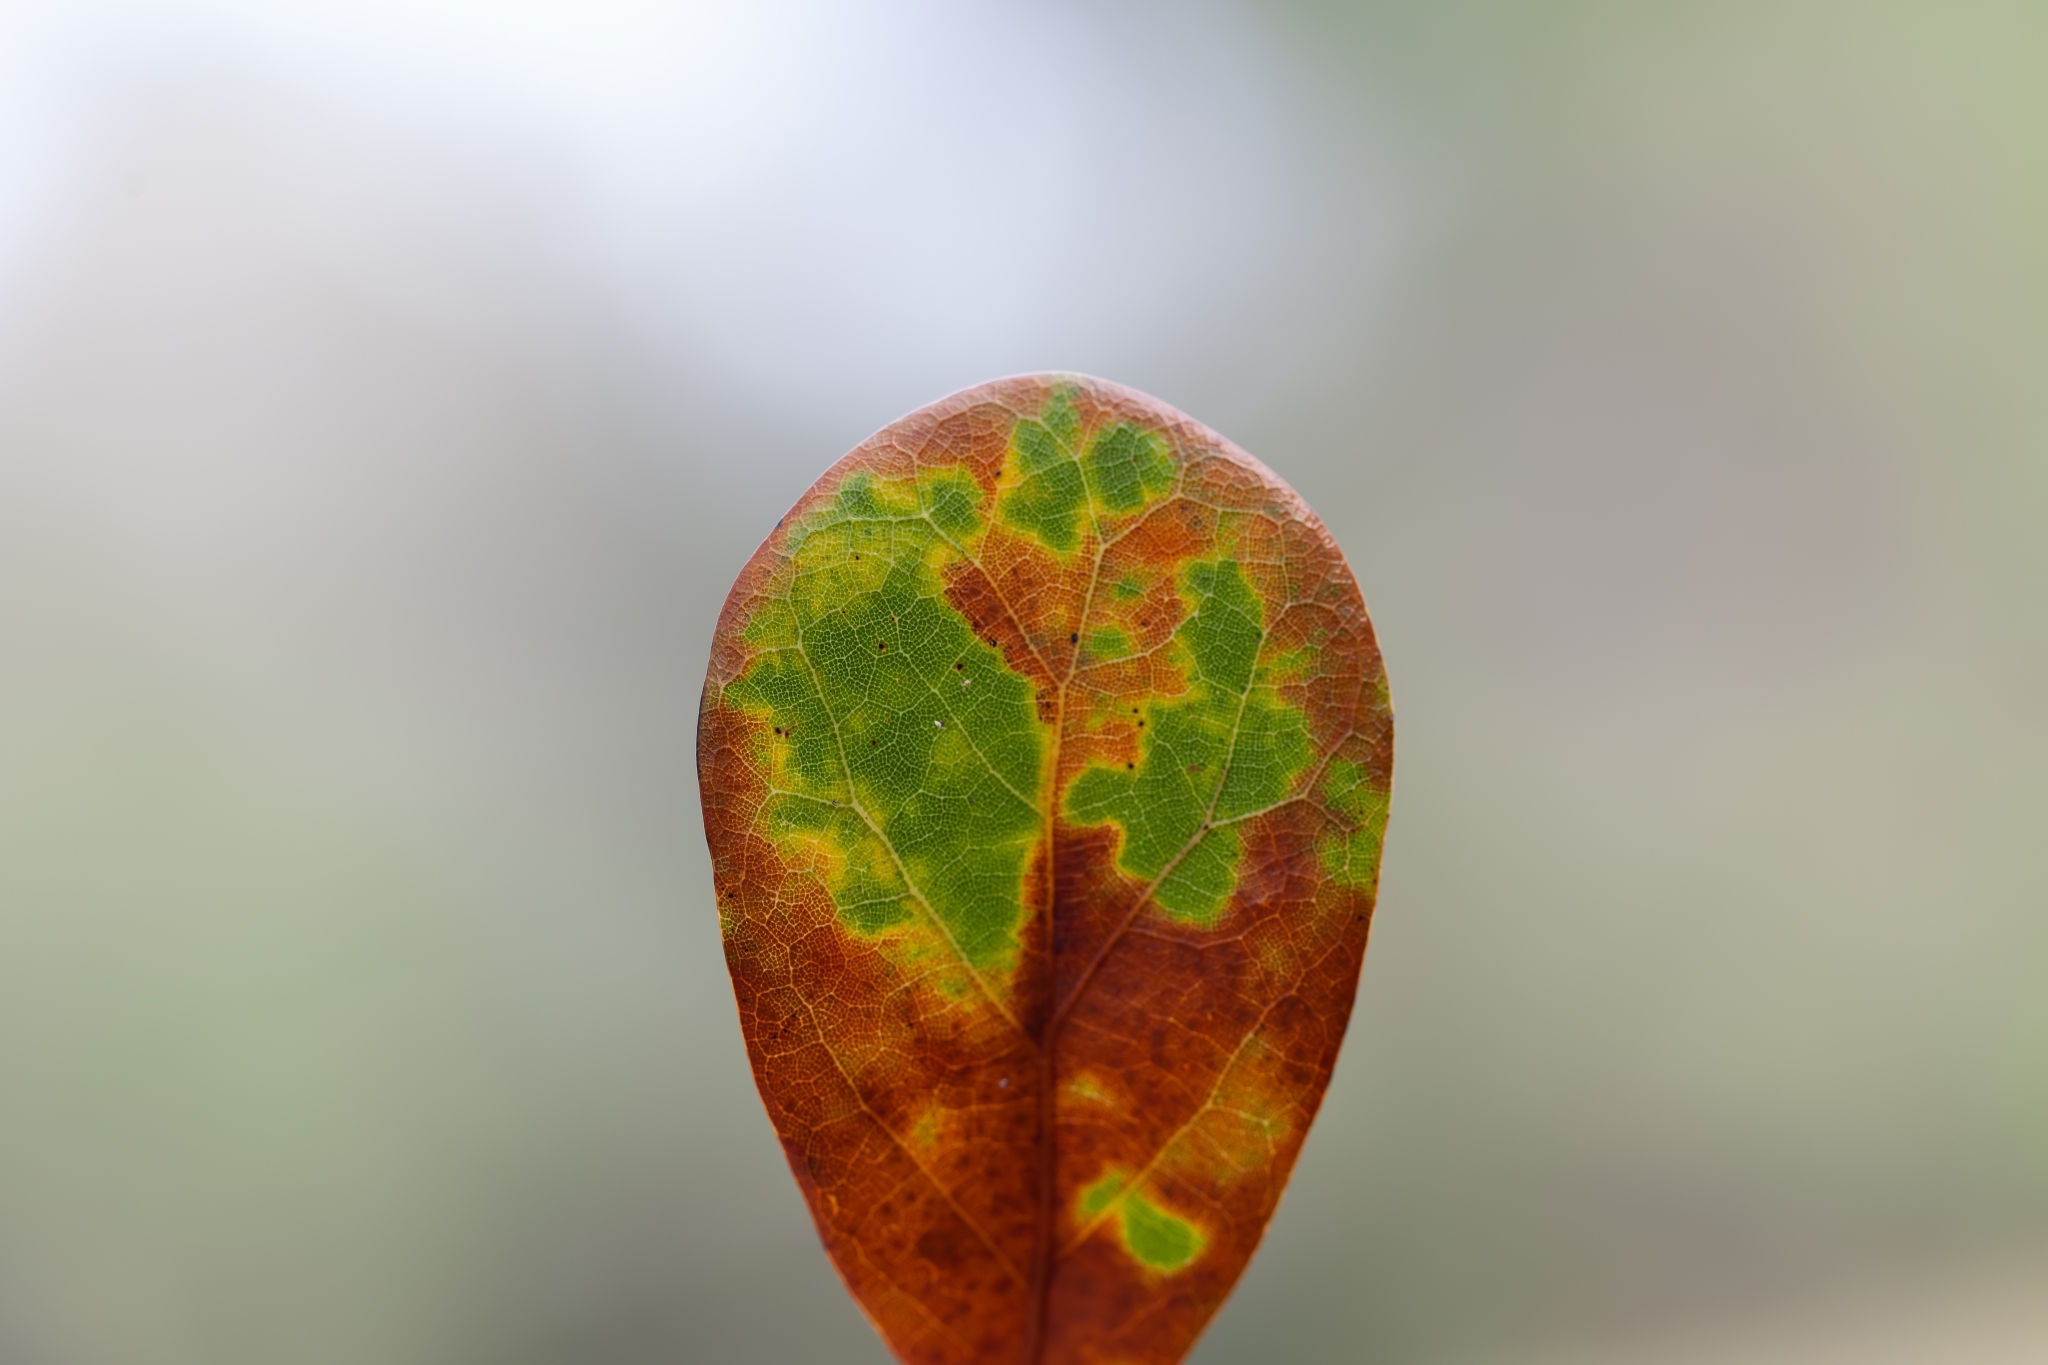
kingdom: Plantae
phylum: Tracheophyta
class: Magnoliopsida
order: Fagales
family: Fagaceae
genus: Quercus
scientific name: Quercus myrtifolia
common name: Myrtle oak
